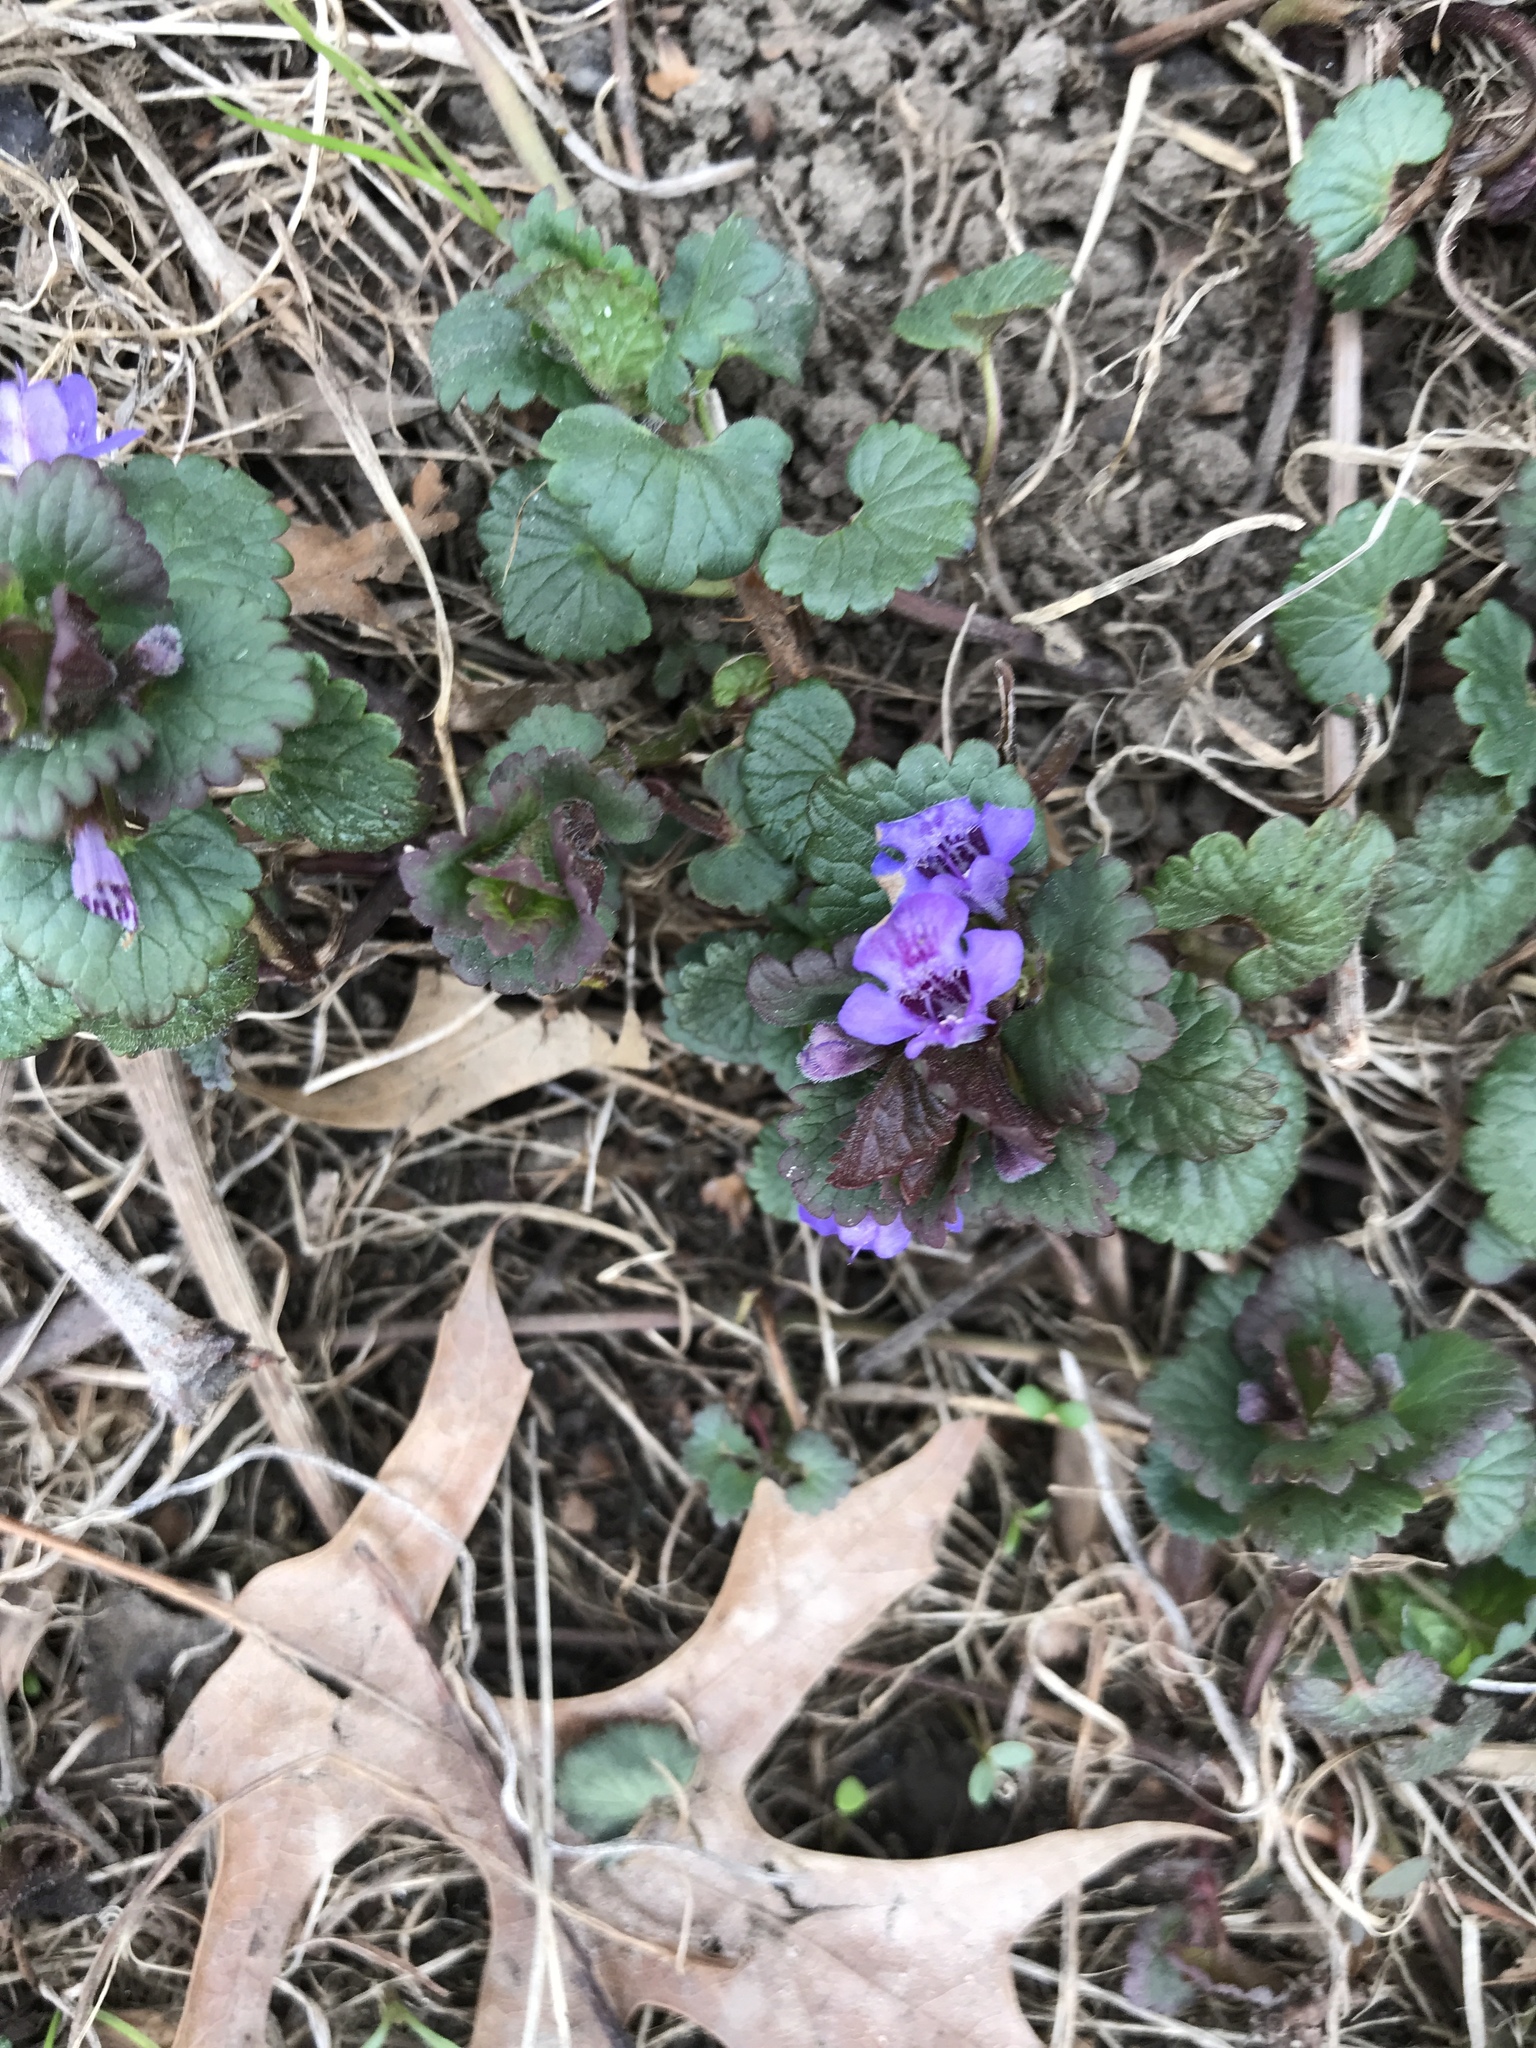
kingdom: Plantae
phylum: Tracheophyta
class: Magnoliopsida
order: Lamiales
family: Lamiaceae
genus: Glechoma
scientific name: Glechoma hederacea
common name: Ground ivy
